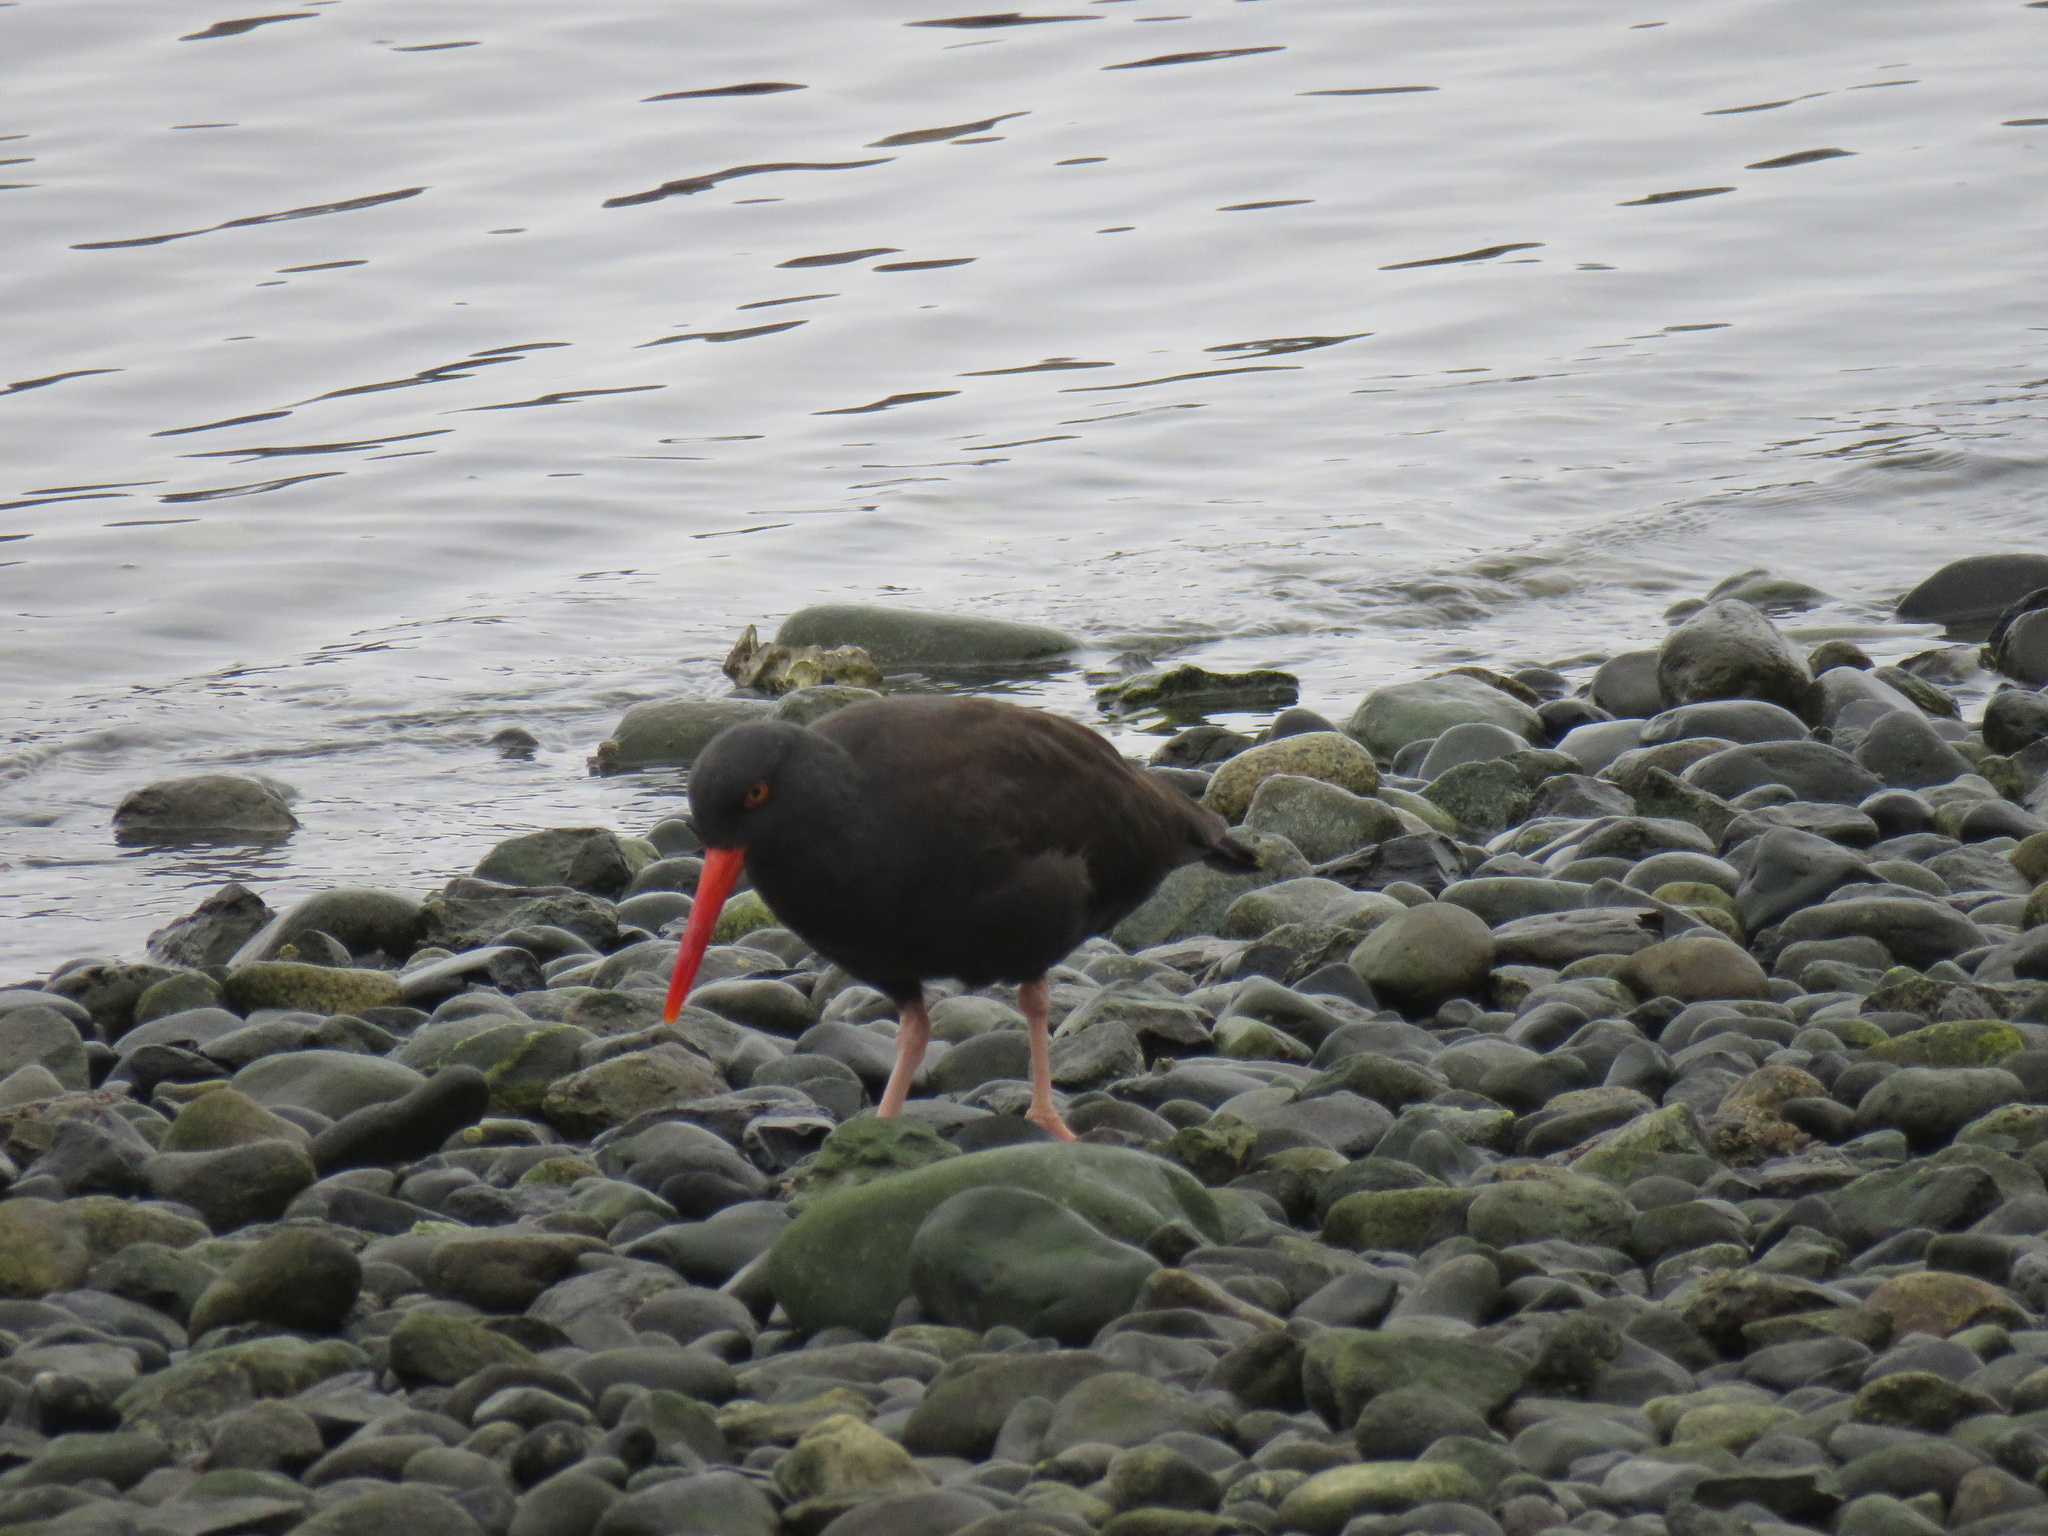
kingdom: Animalia
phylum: Chordata
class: Aves
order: Charadriiformes
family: Haematopodidae
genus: Haematopus
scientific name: Haematopus bachmani
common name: Black oystercatcher
